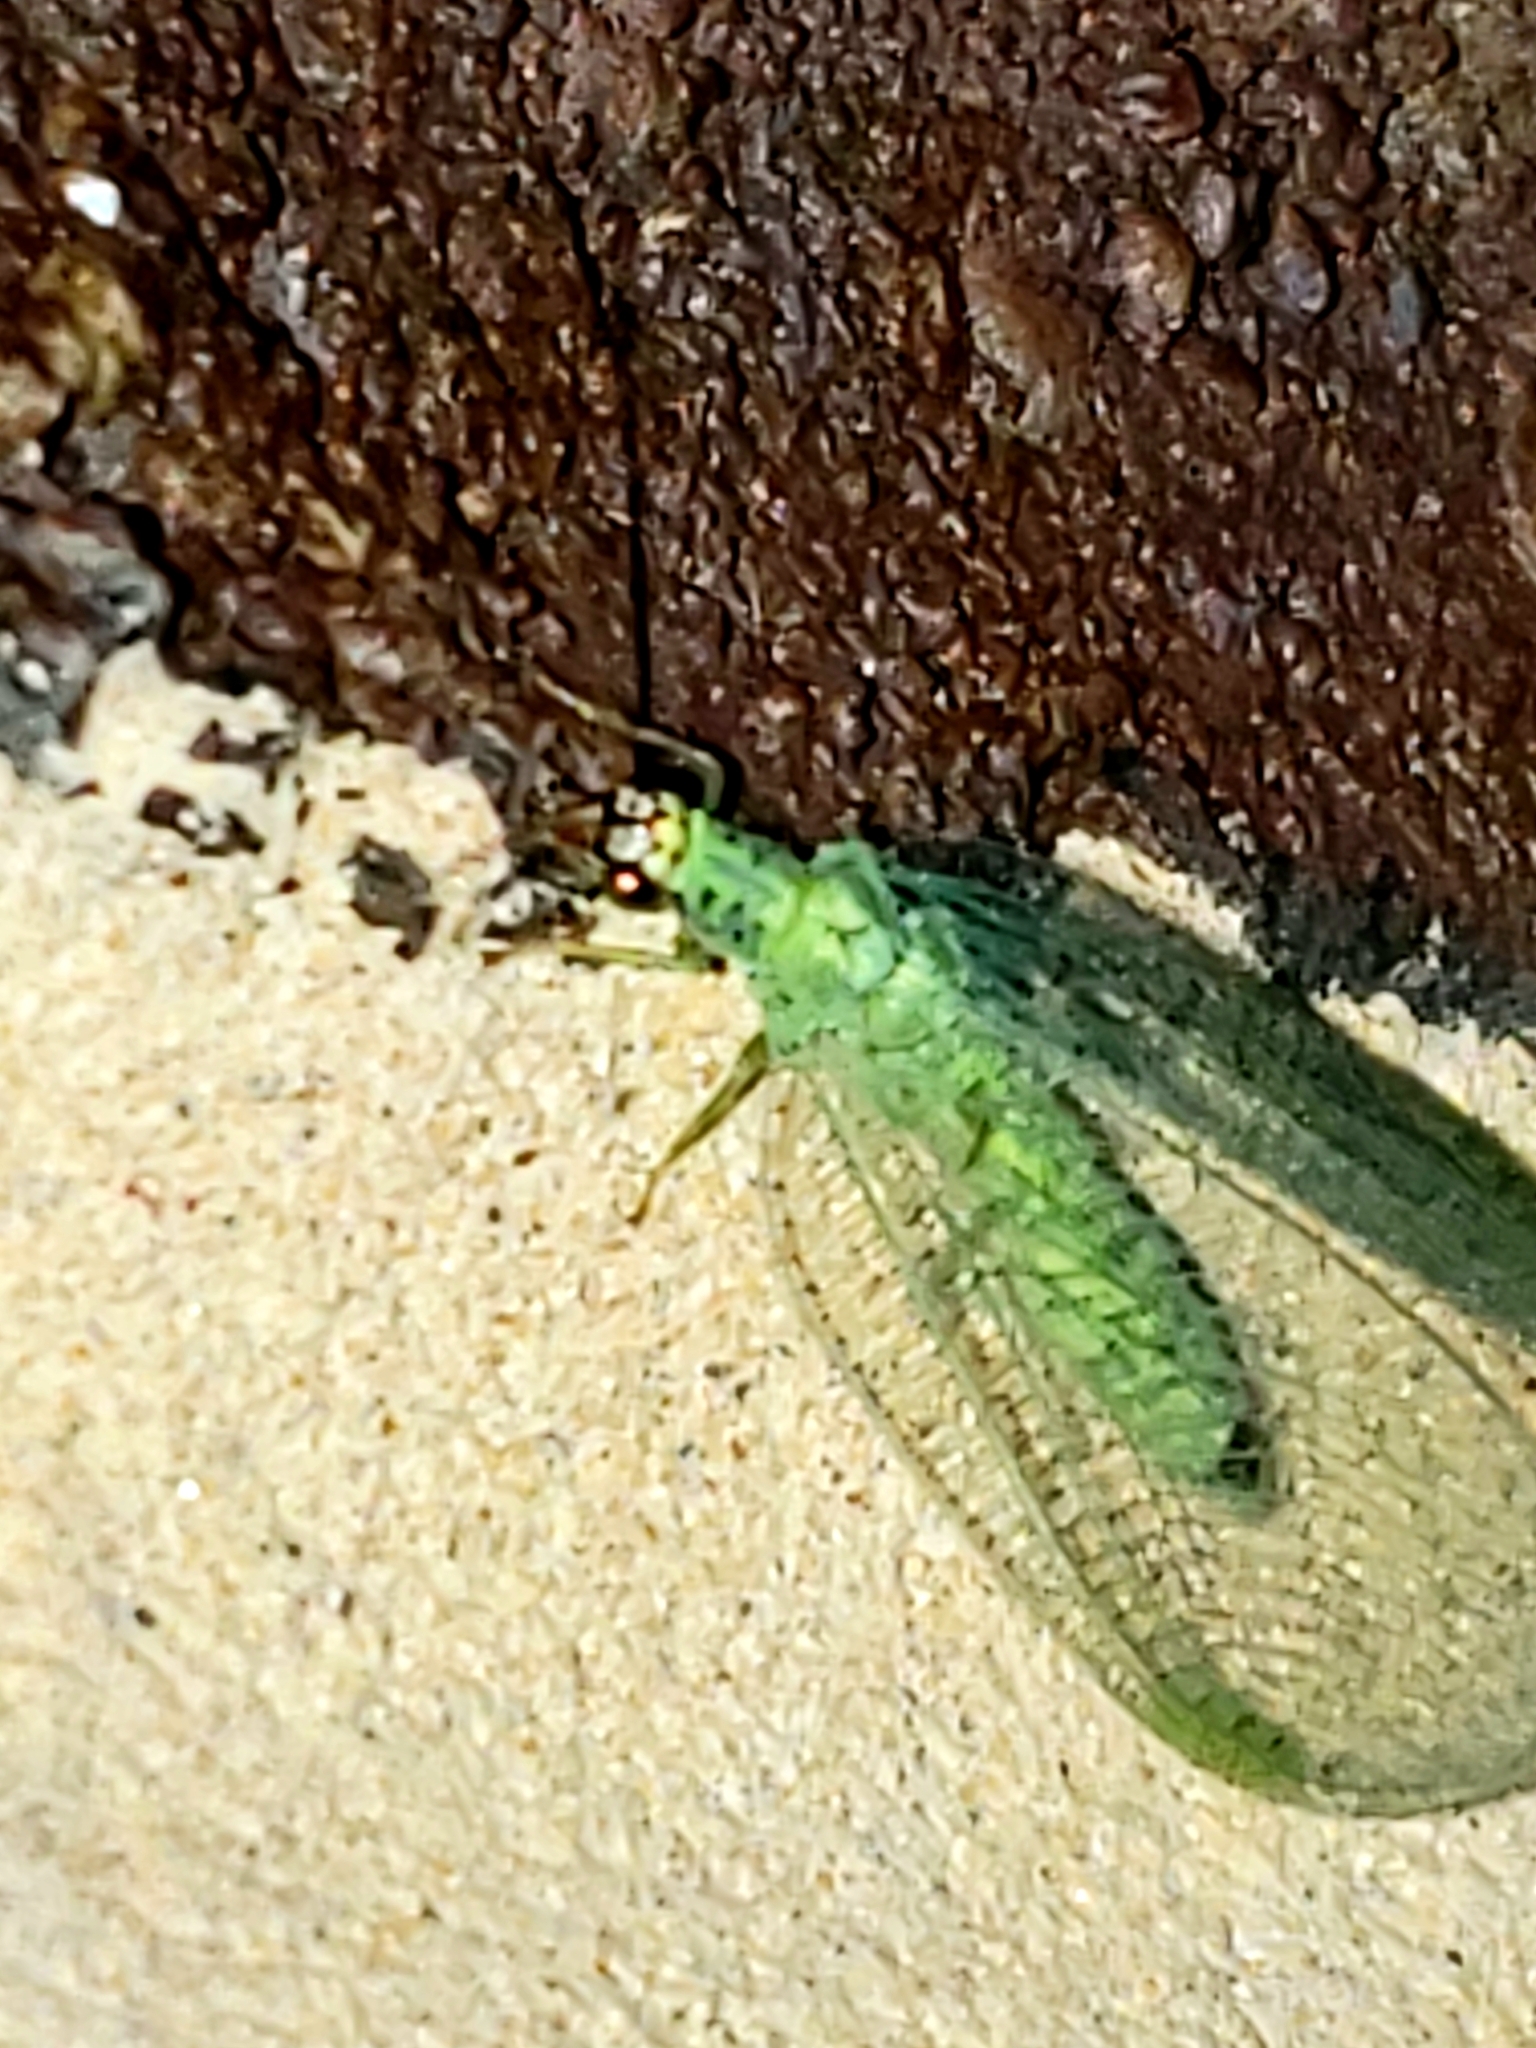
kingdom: Animalia
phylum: Arthropoda
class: Insecta
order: Neuroptera
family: Chrysopidae
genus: Chrysopa
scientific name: Chrysopa oculata
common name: Golden-eyed lacewing
